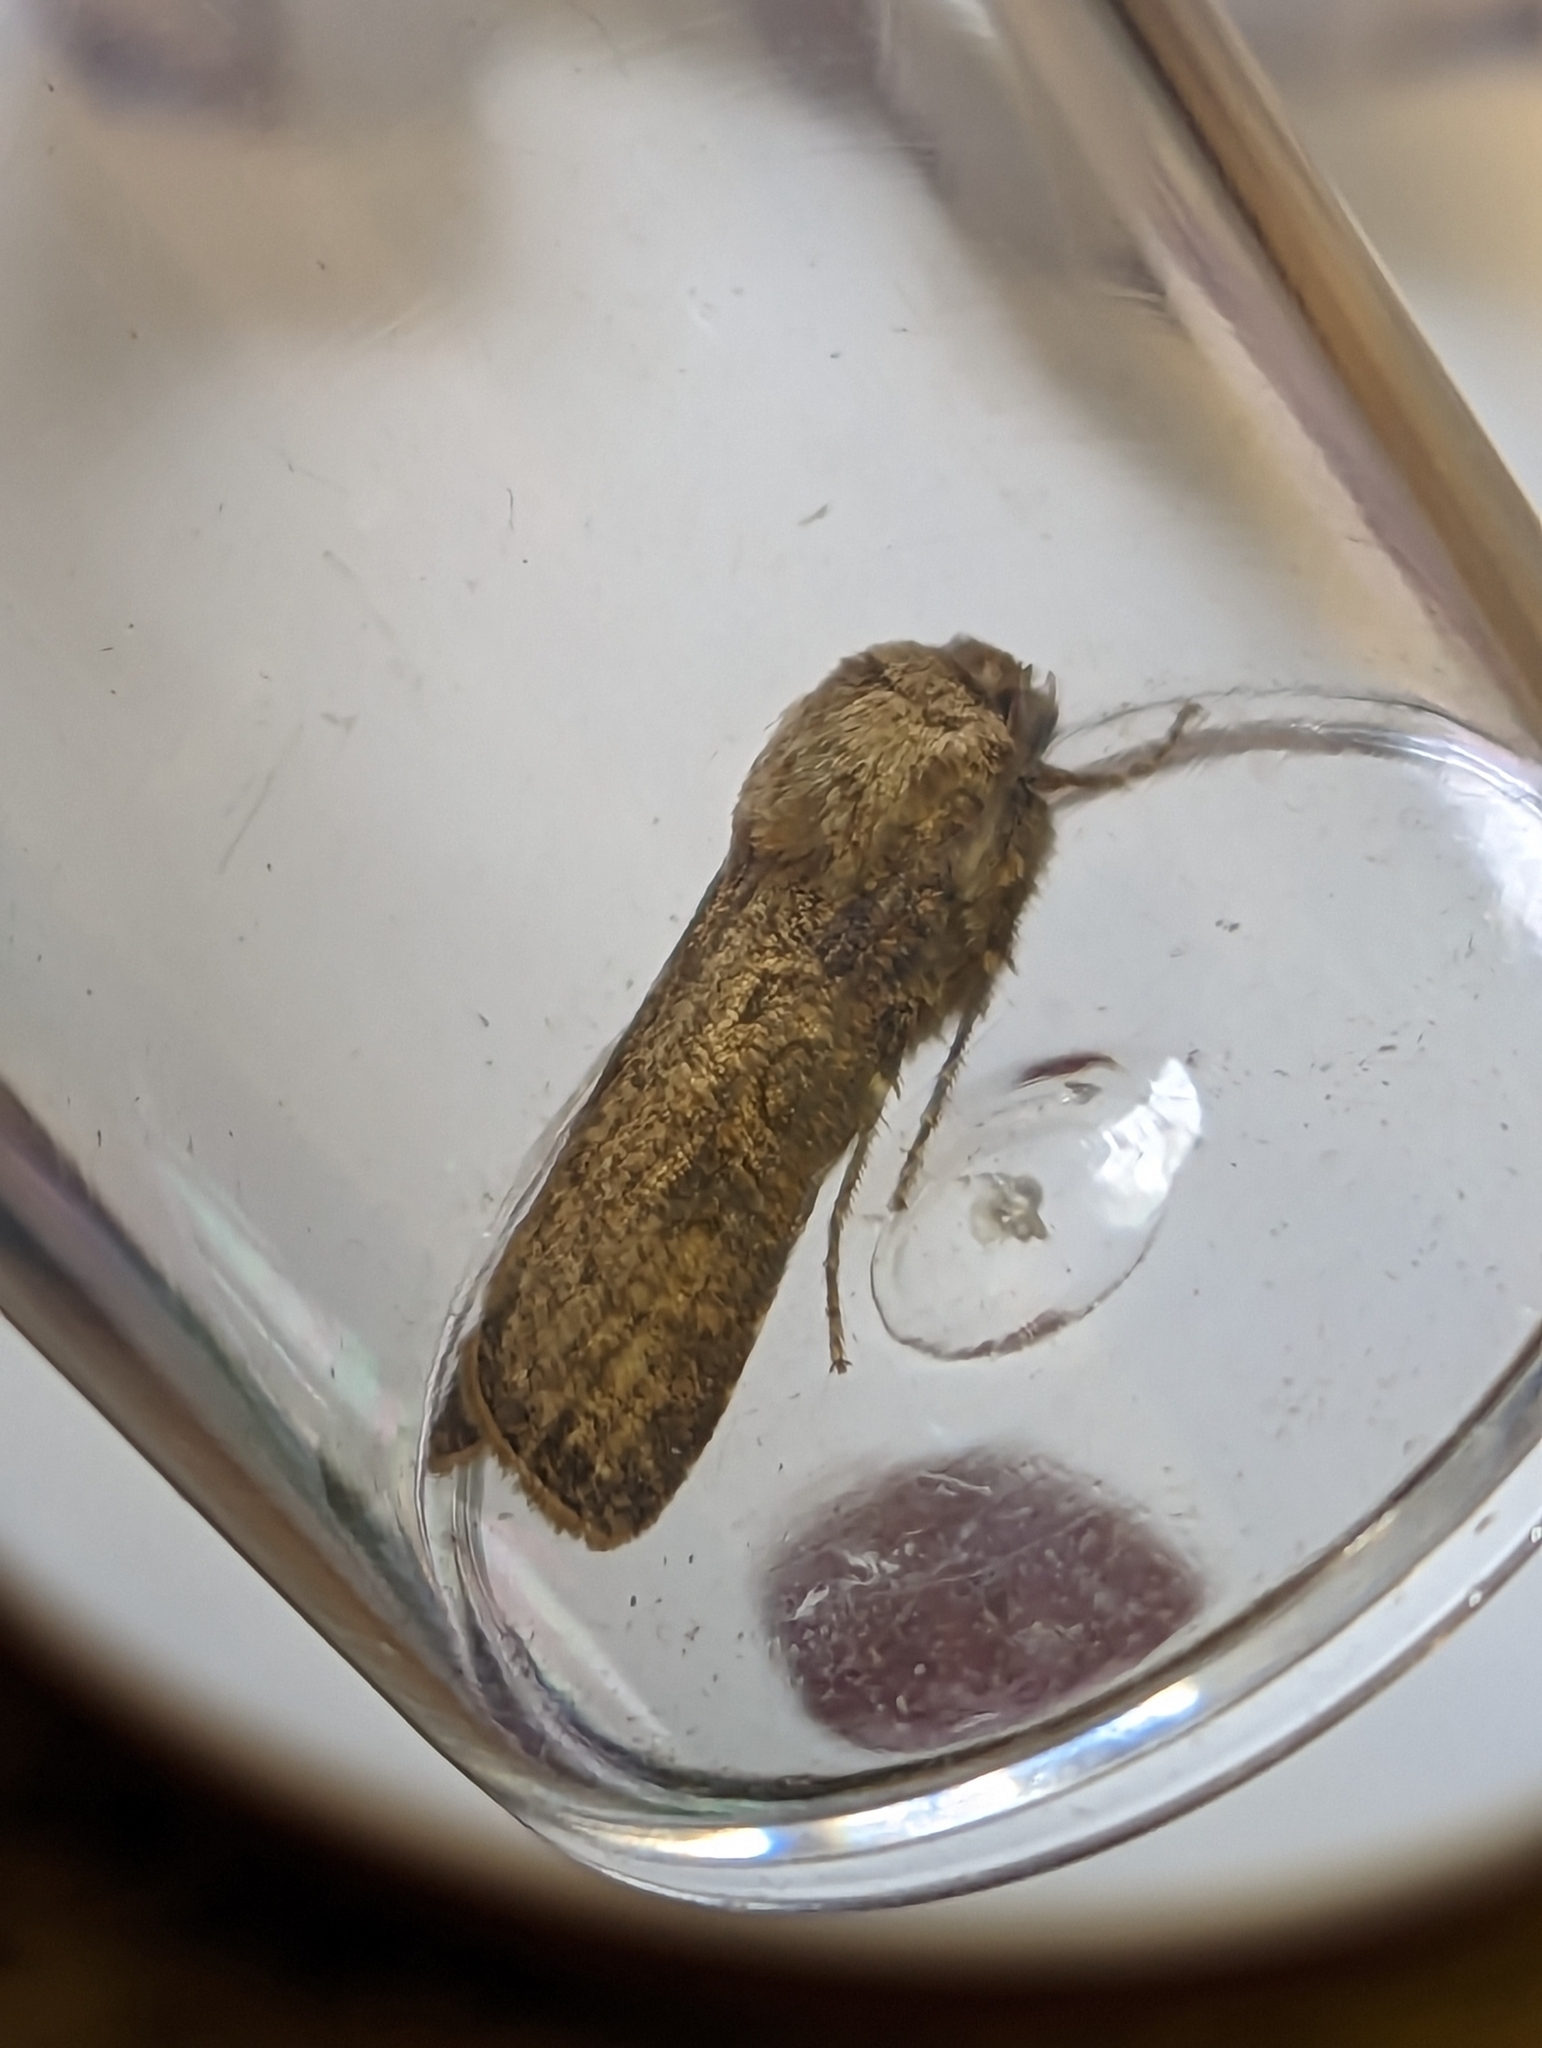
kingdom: Animalia
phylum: Arthropoda
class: Insecta
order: Lepidoptera
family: Noctuidae
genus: Agrotis
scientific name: Agrotis segetum
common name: Turnip moth
